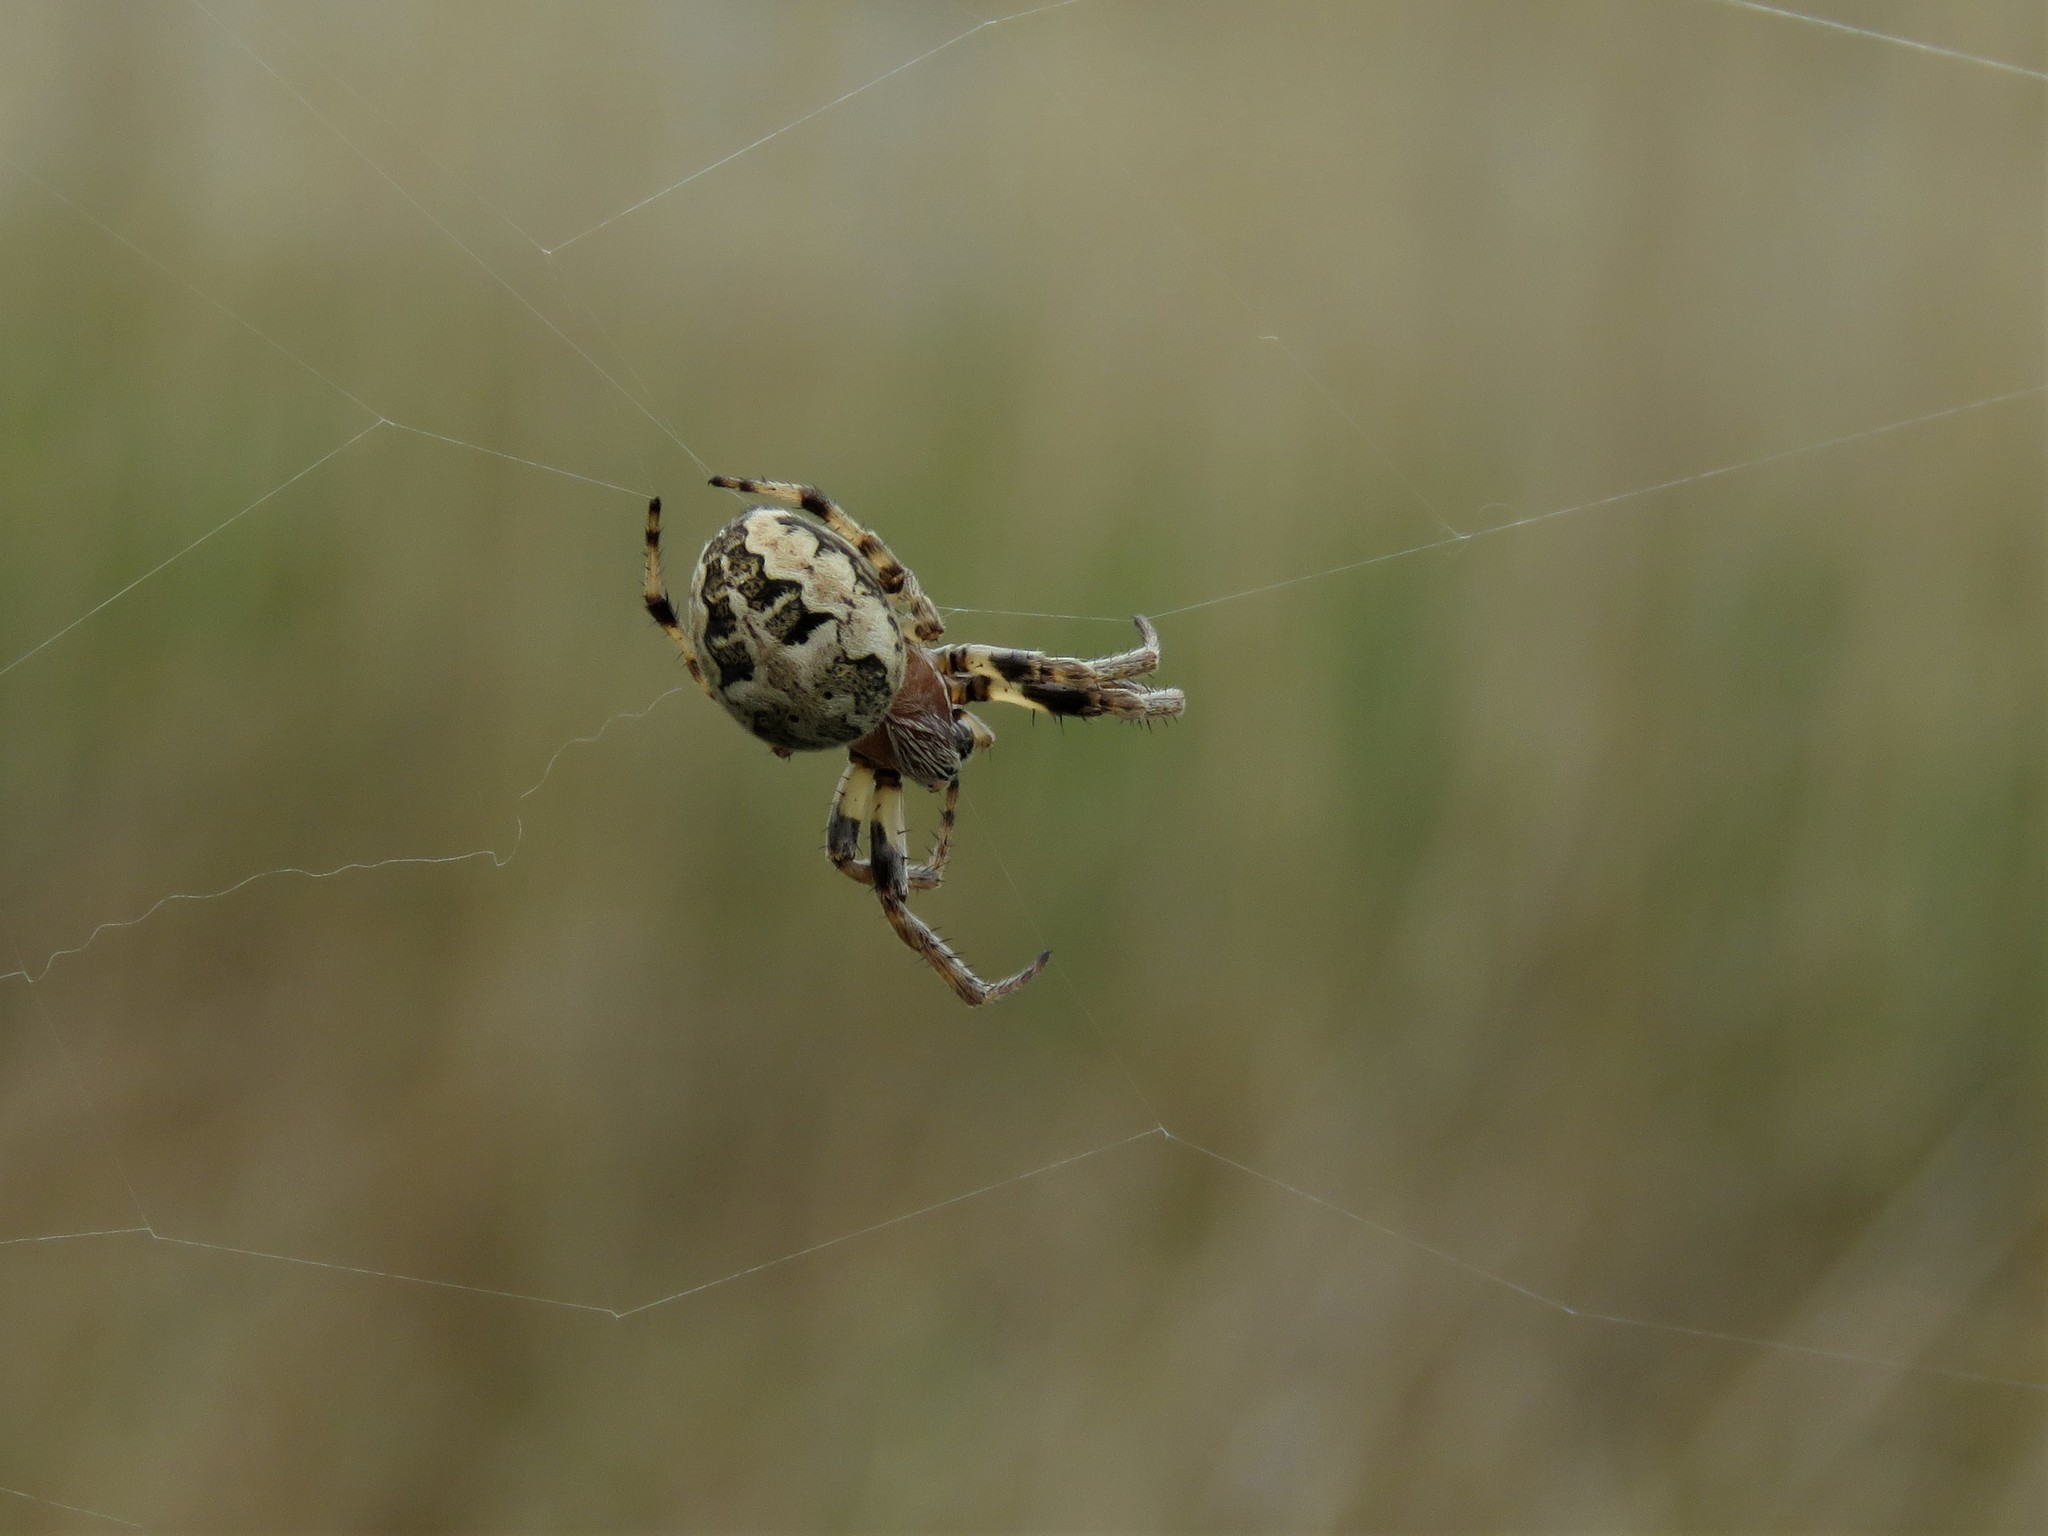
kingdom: Animalia
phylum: Arthropoda
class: Arachnida
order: Araneae
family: Araneidae
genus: Larinioides
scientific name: Larinioides cornutus
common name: Furrow orbweaver
